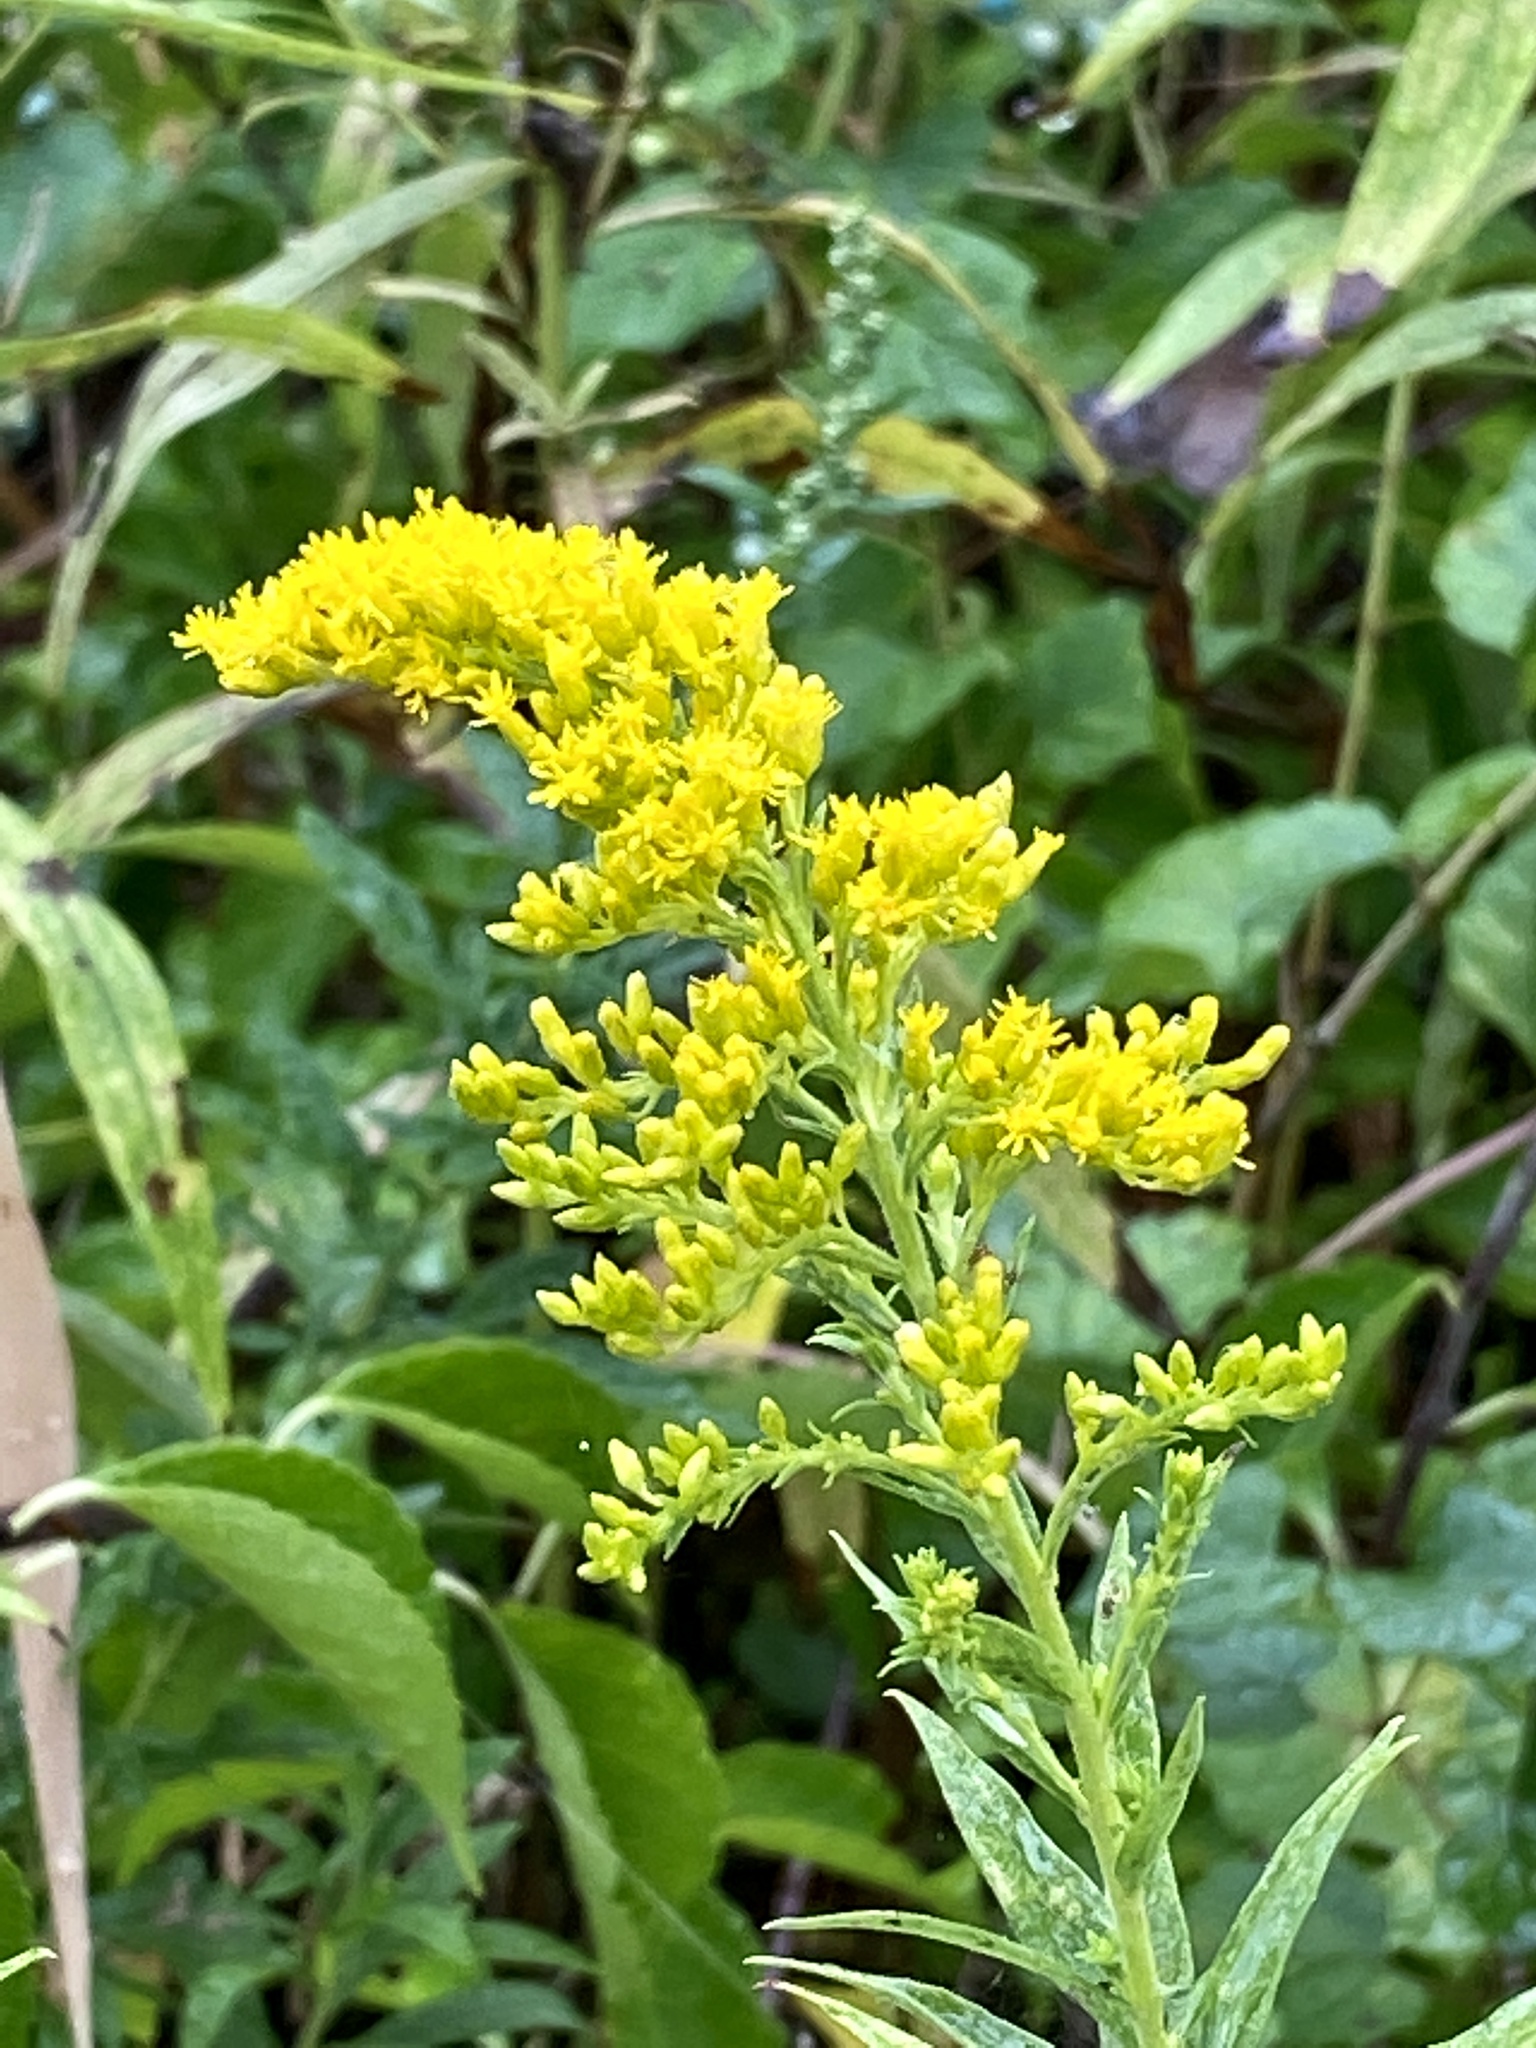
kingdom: Plantae
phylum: Tracheophyta
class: Magnoliopsida
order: Asterales
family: Asteraceae
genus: Solidago
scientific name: Solidago altissima
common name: Late goldenrod
